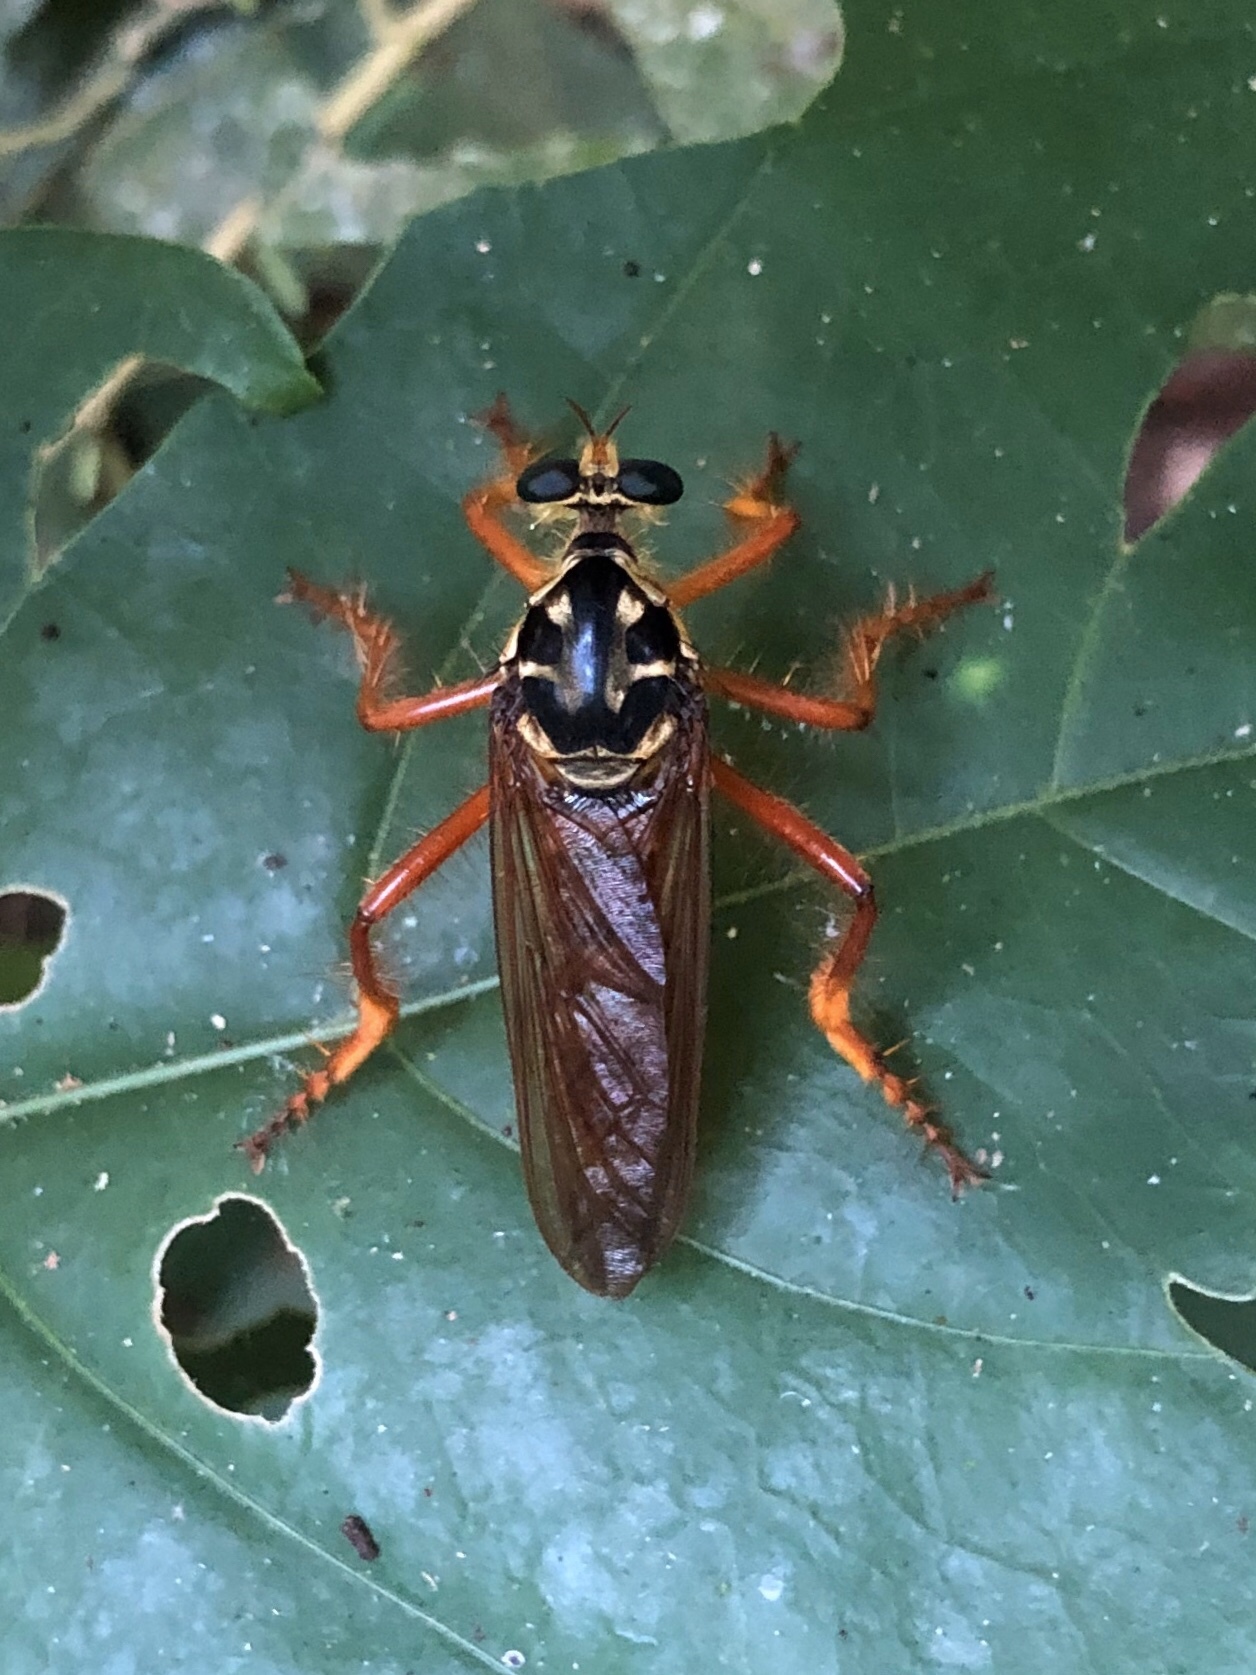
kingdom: Animalia
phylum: Arthropoda
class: Insecta
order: Diptera
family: Asilidae
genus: Smeryngolaphria
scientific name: Smeryngolaphria numitor
